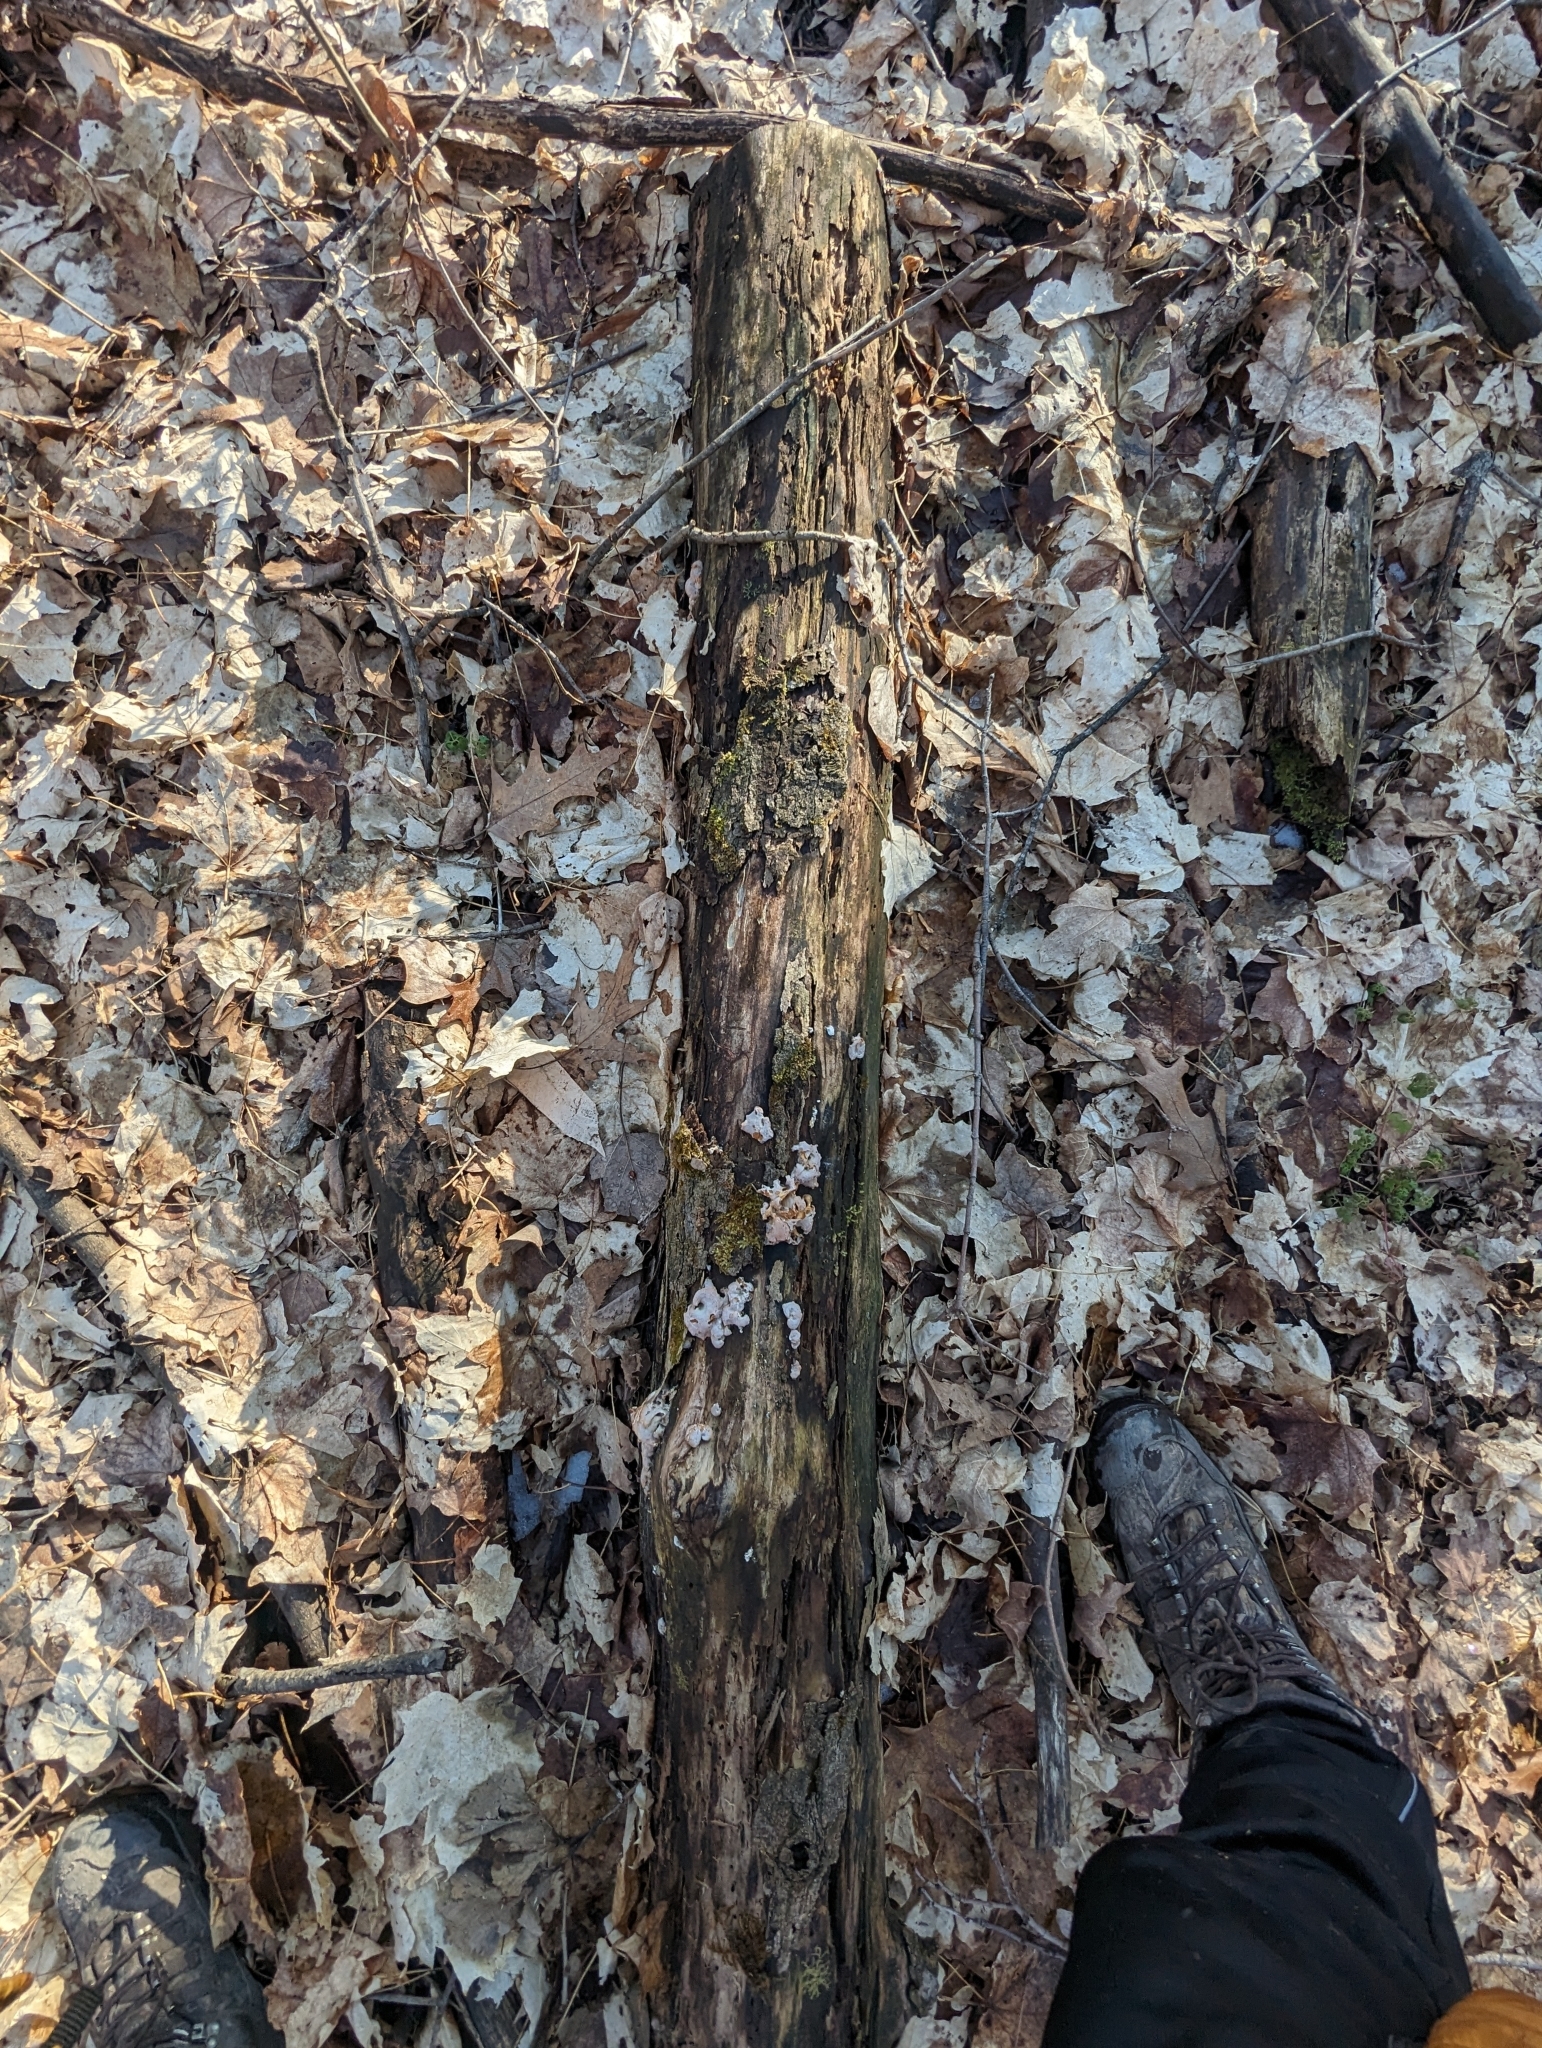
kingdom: Fungi
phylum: Basidiomycota
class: Agaricomycetes
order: Agaricales
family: Mycenaceae
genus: Panellus
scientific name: Panellus stipticus
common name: Bitter oysterling
